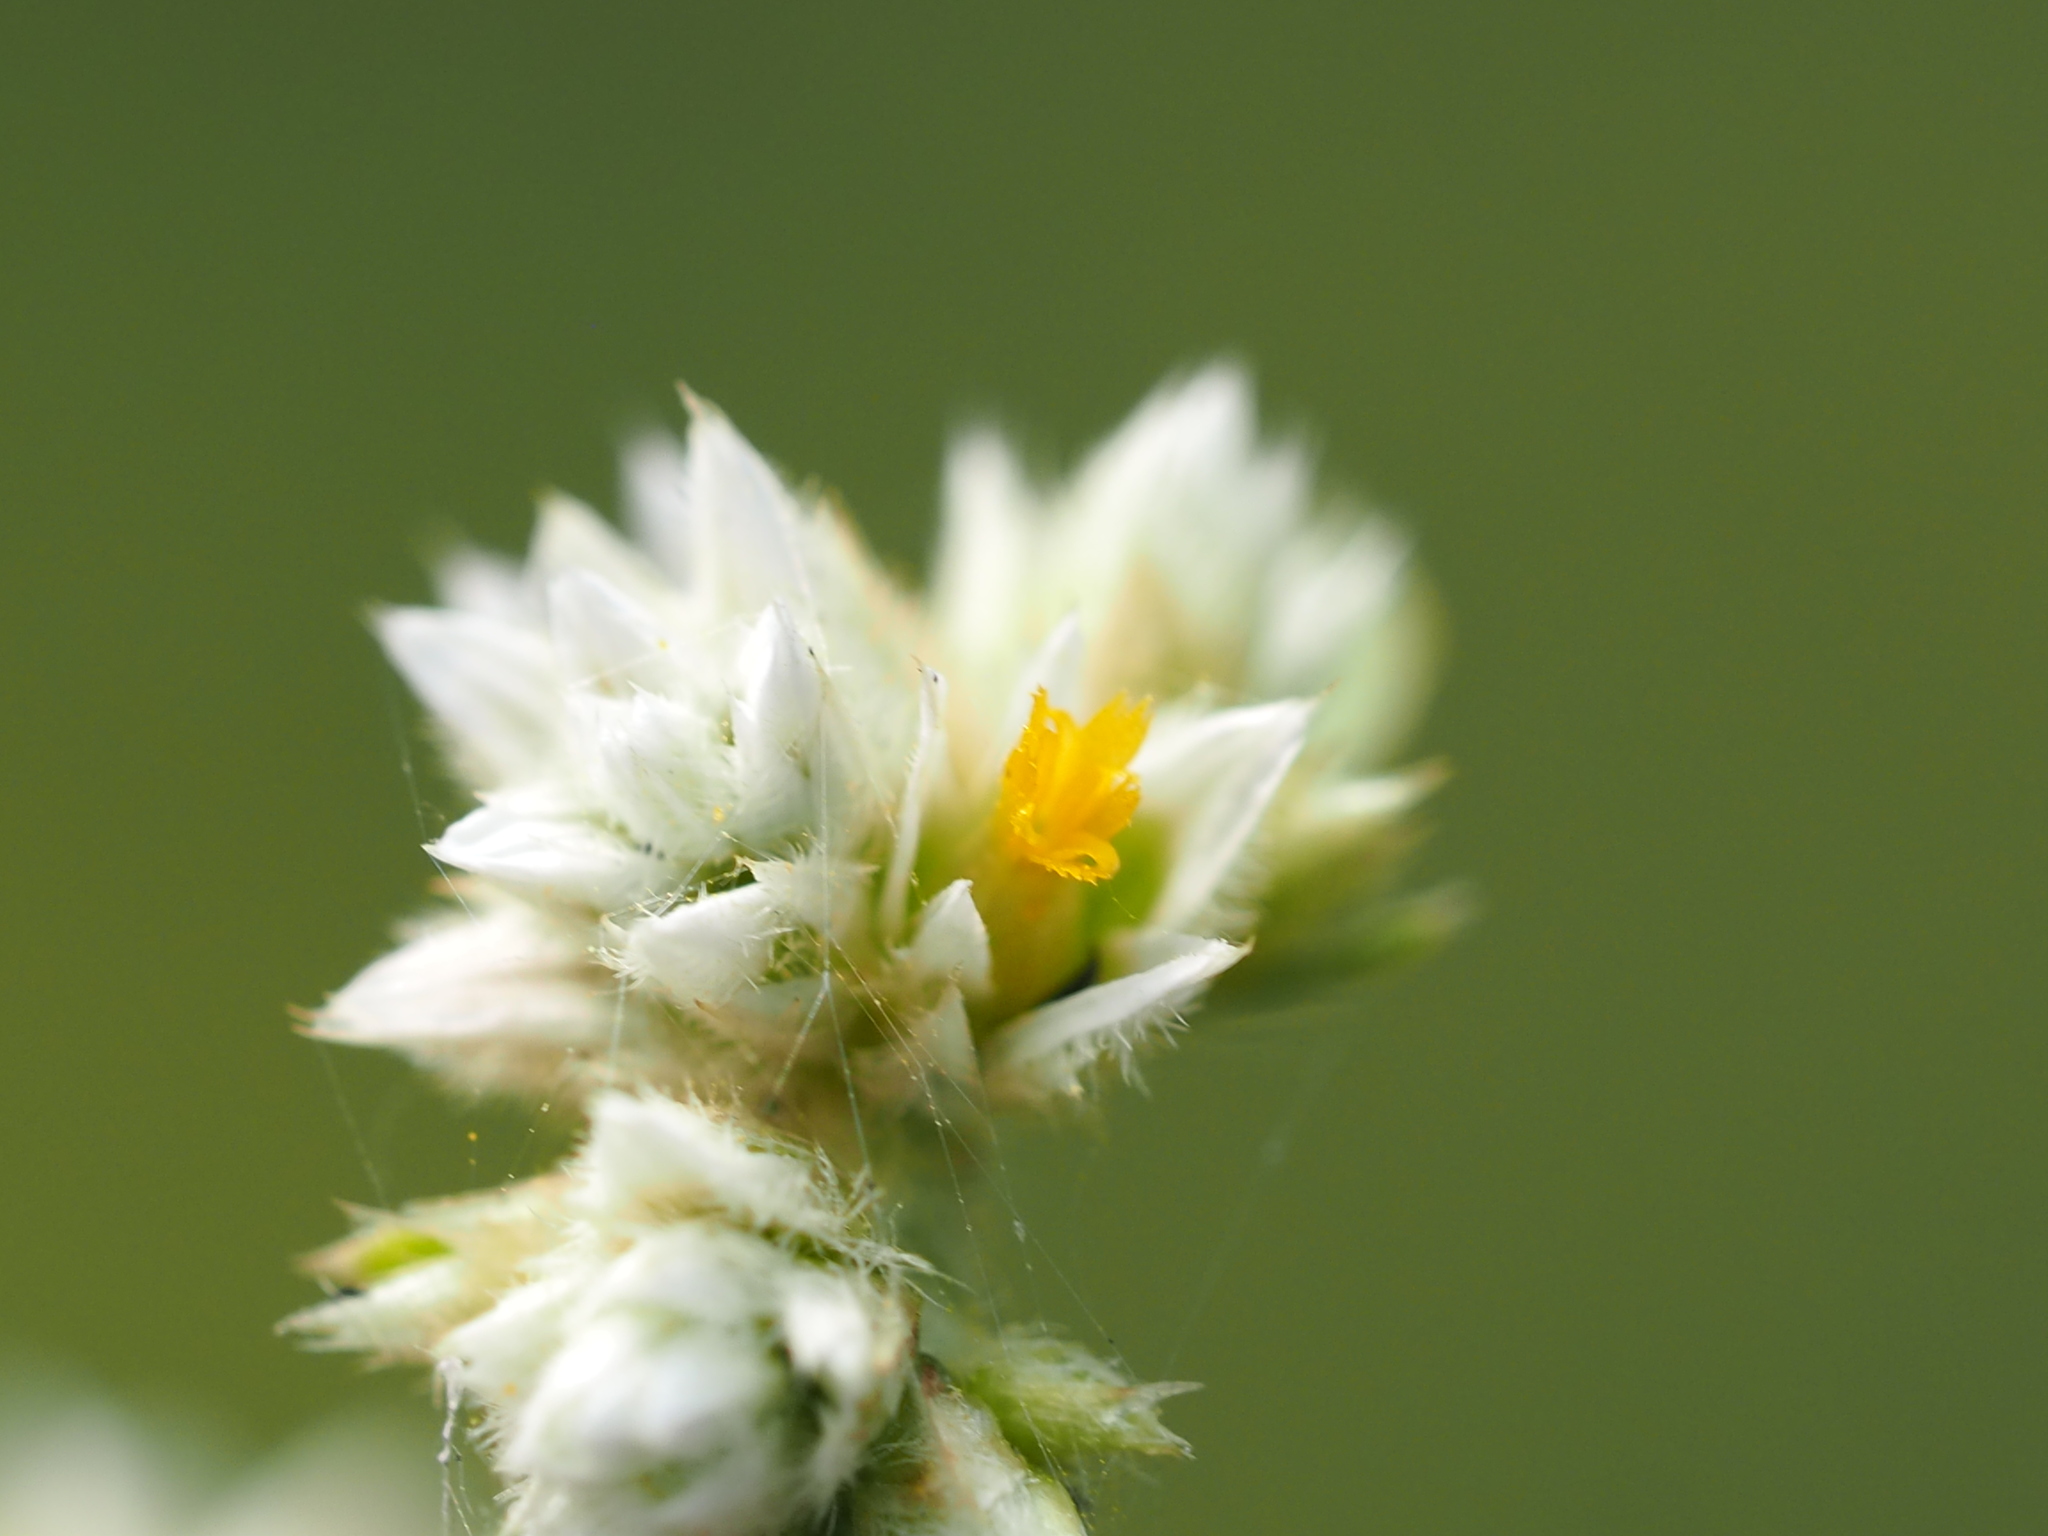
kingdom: Plantae
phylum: Tracheophyta
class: Magnoliopsida
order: Caryophyllales
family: Amaranthaceae
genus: Alternanthera
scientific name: Alternanthera ficoidea
